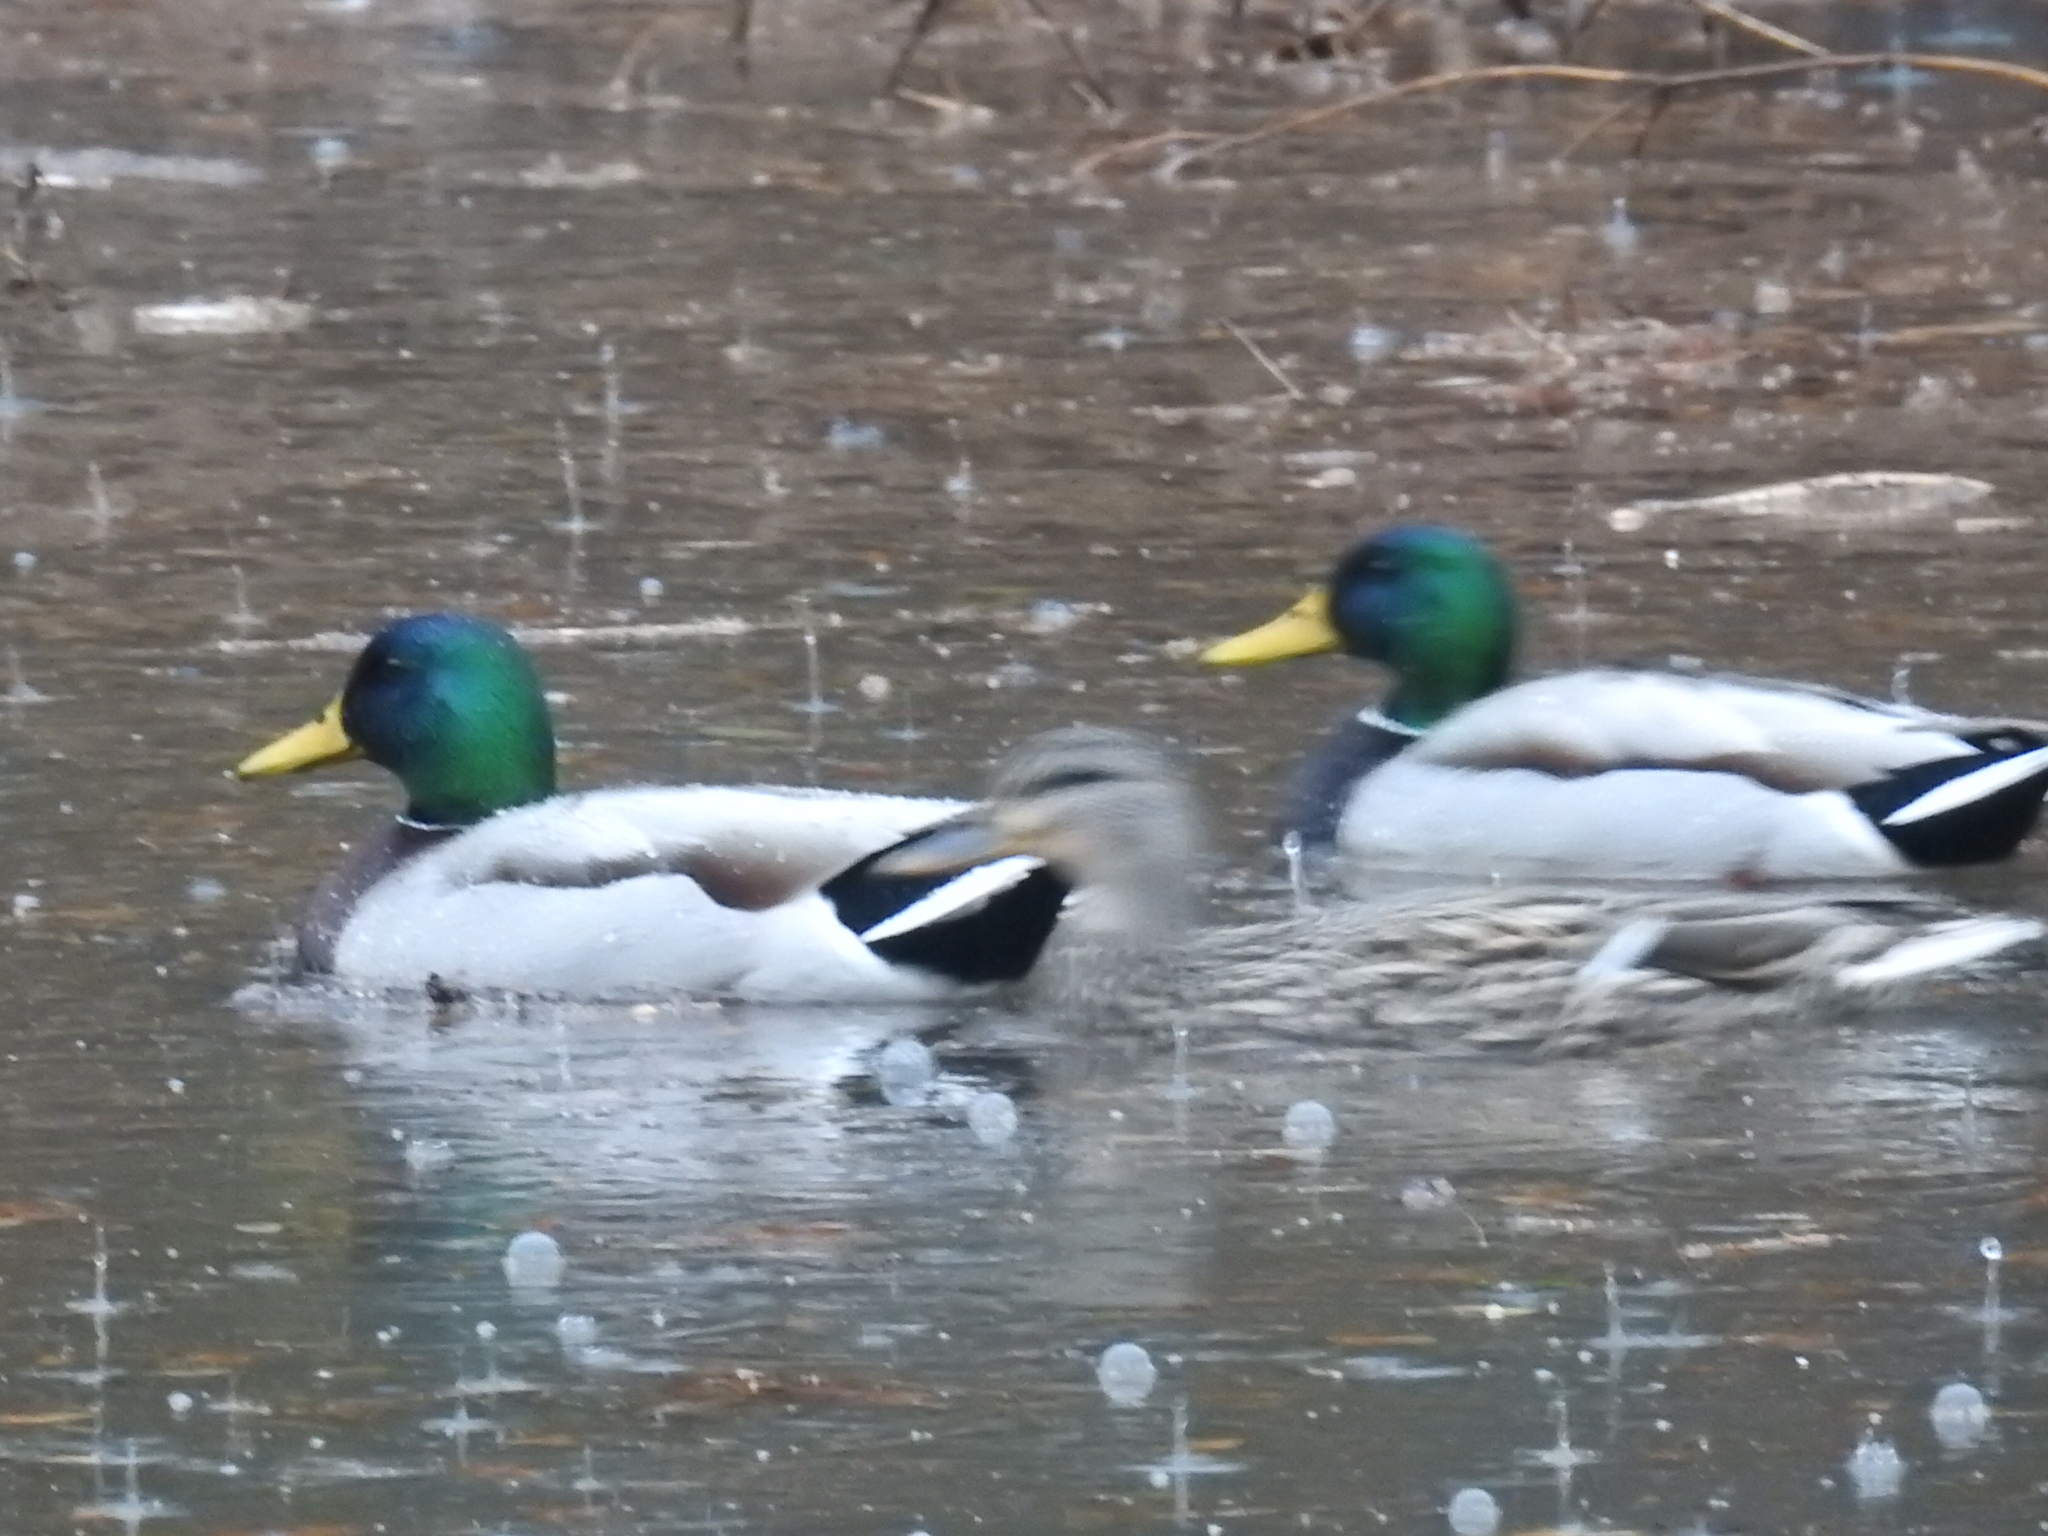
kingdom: Animalia
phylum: Chordata
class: Aves
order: Anseriformes
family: Anatidae
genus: Anas
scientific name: Anas platyrhynchos
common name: Mallard
